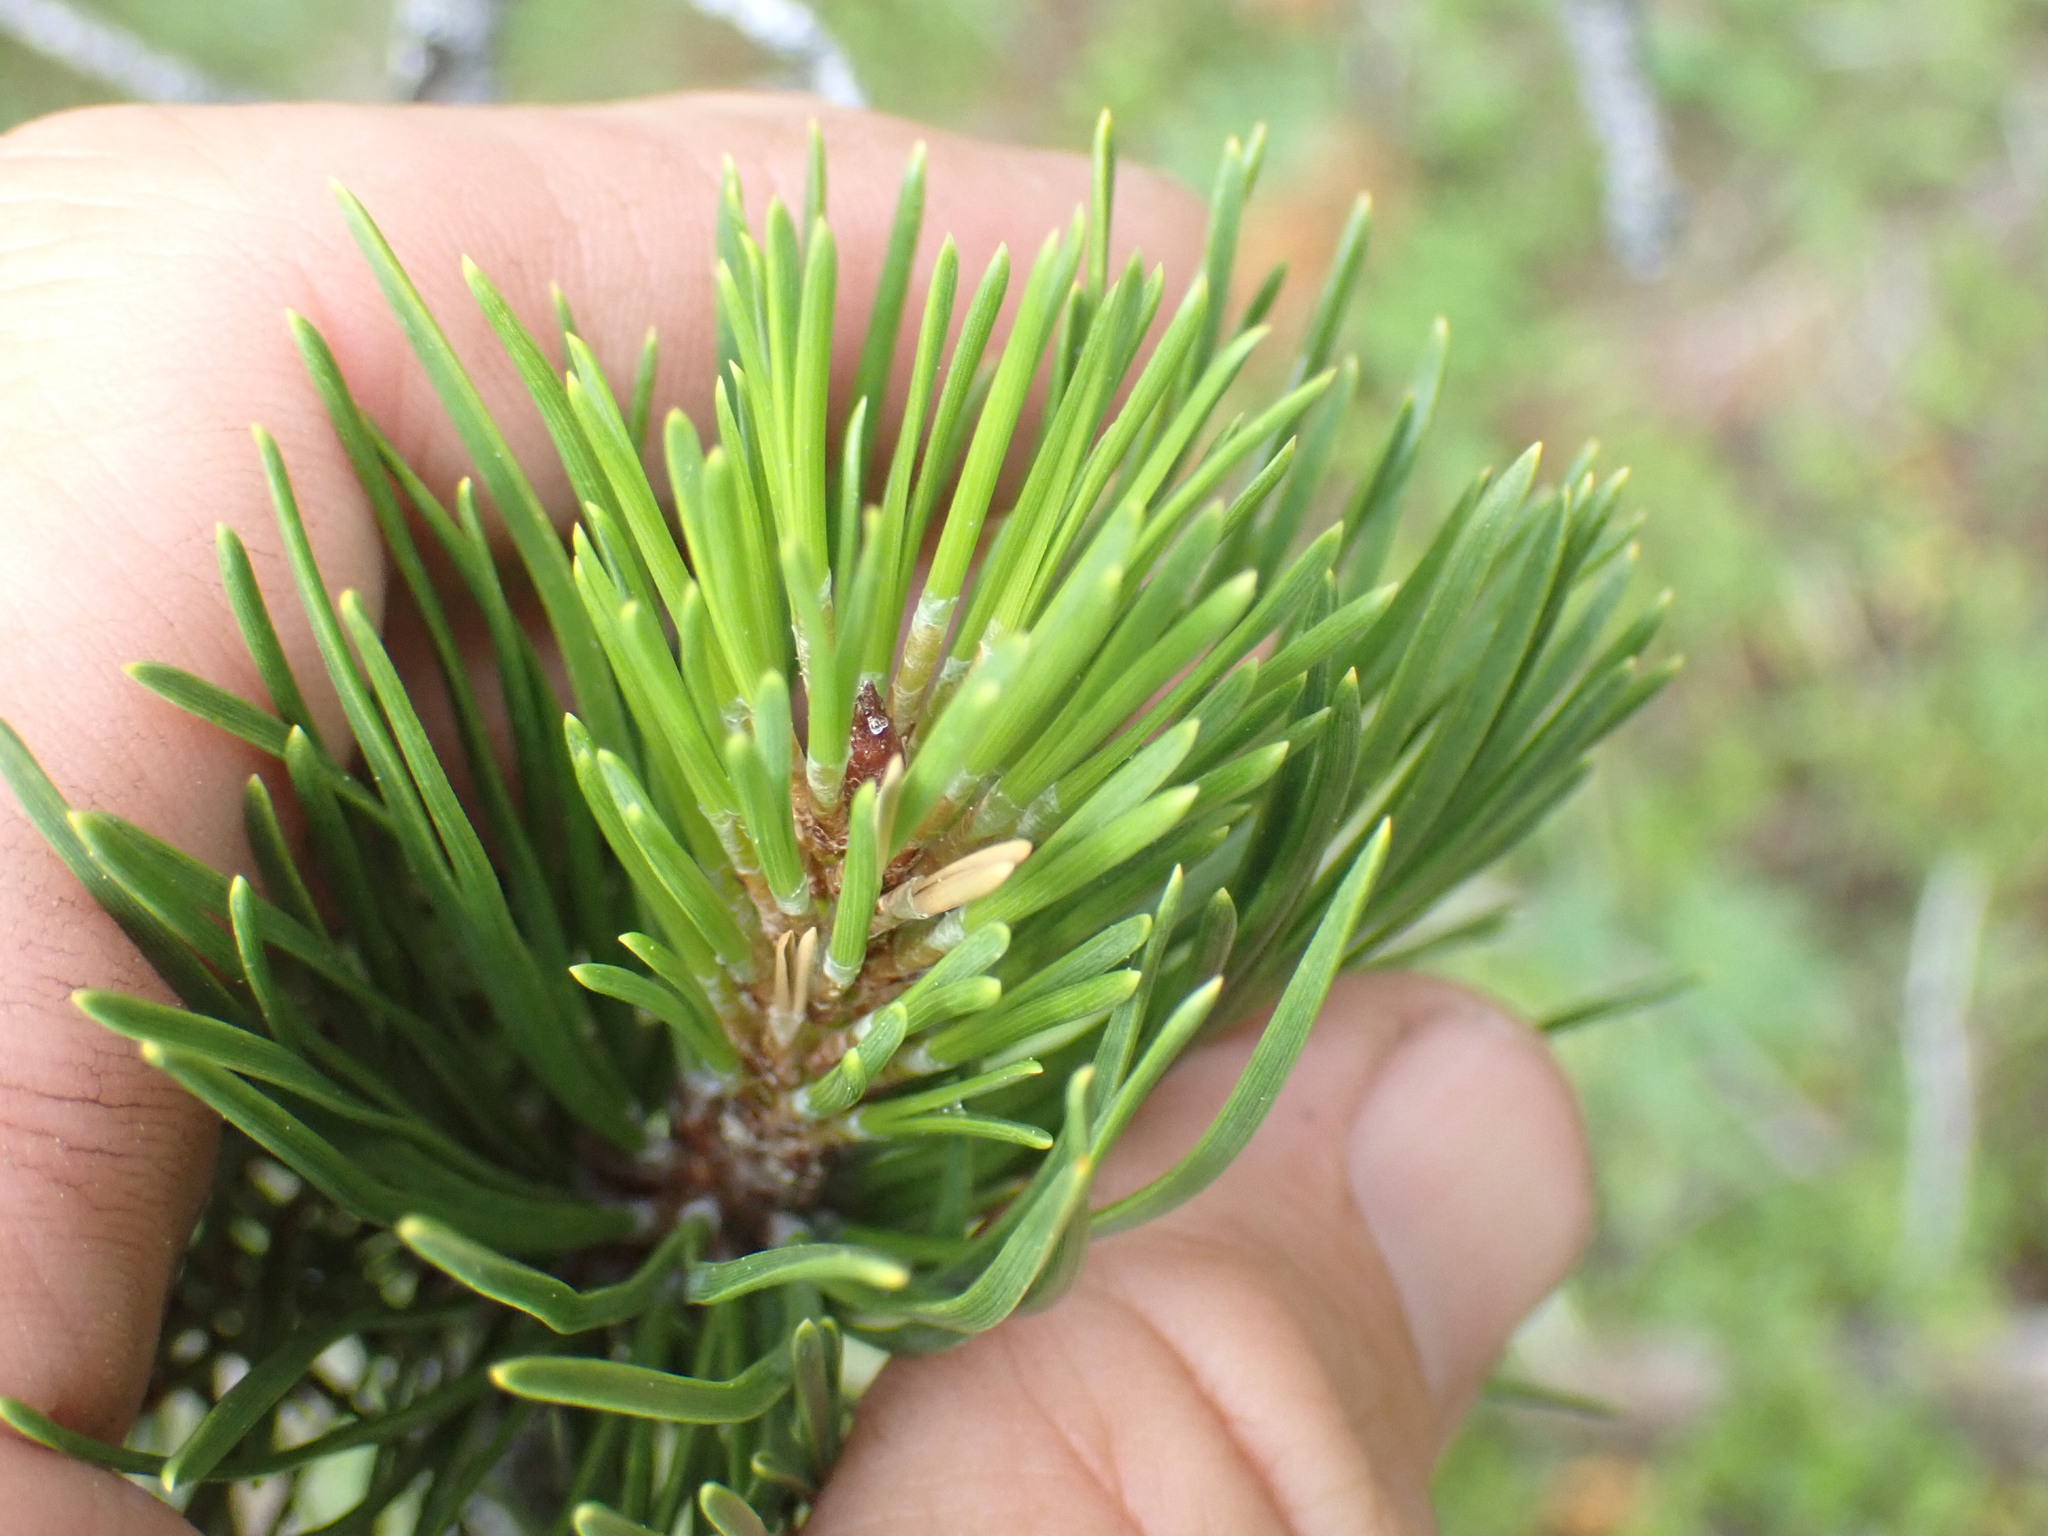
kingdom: Plantae
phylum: Tracheophyta
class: Pinopsida
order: Pinales
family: Pinaceae
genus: Pinus
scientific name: Pinus contorta
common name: Lodgepole pine
